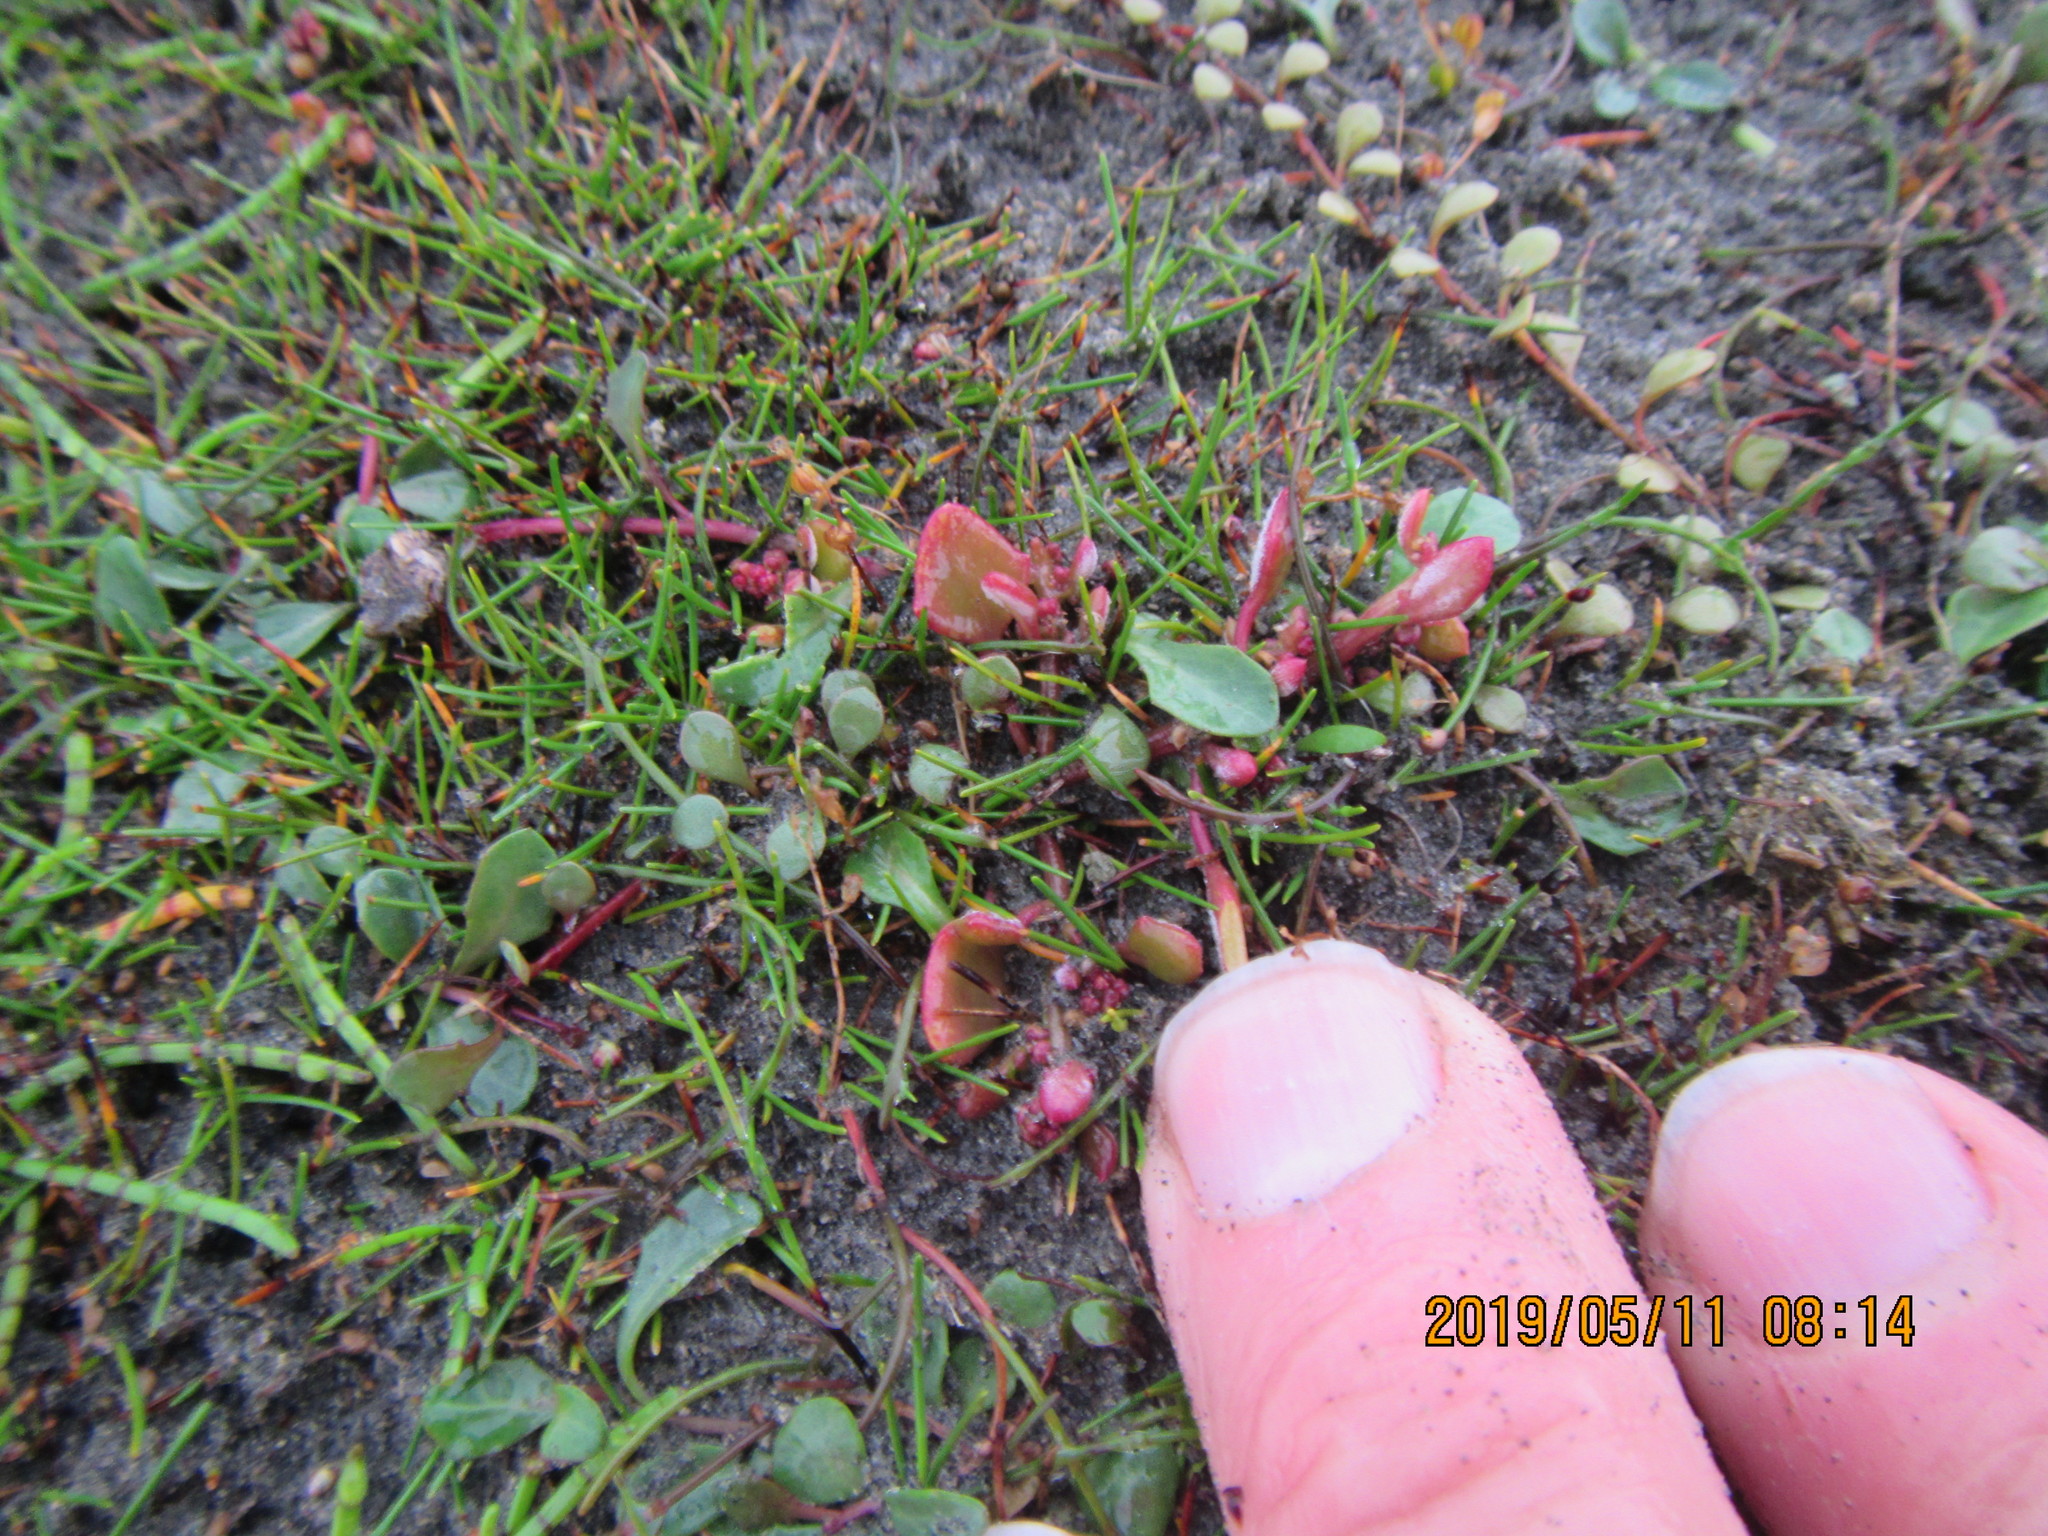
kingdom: Plantae
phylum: Tracheophyta
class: Magnoliopsida
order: Caryophyllales
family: Amaranthaceae
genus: Oxybasis
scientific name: Oxybasis ambigua
